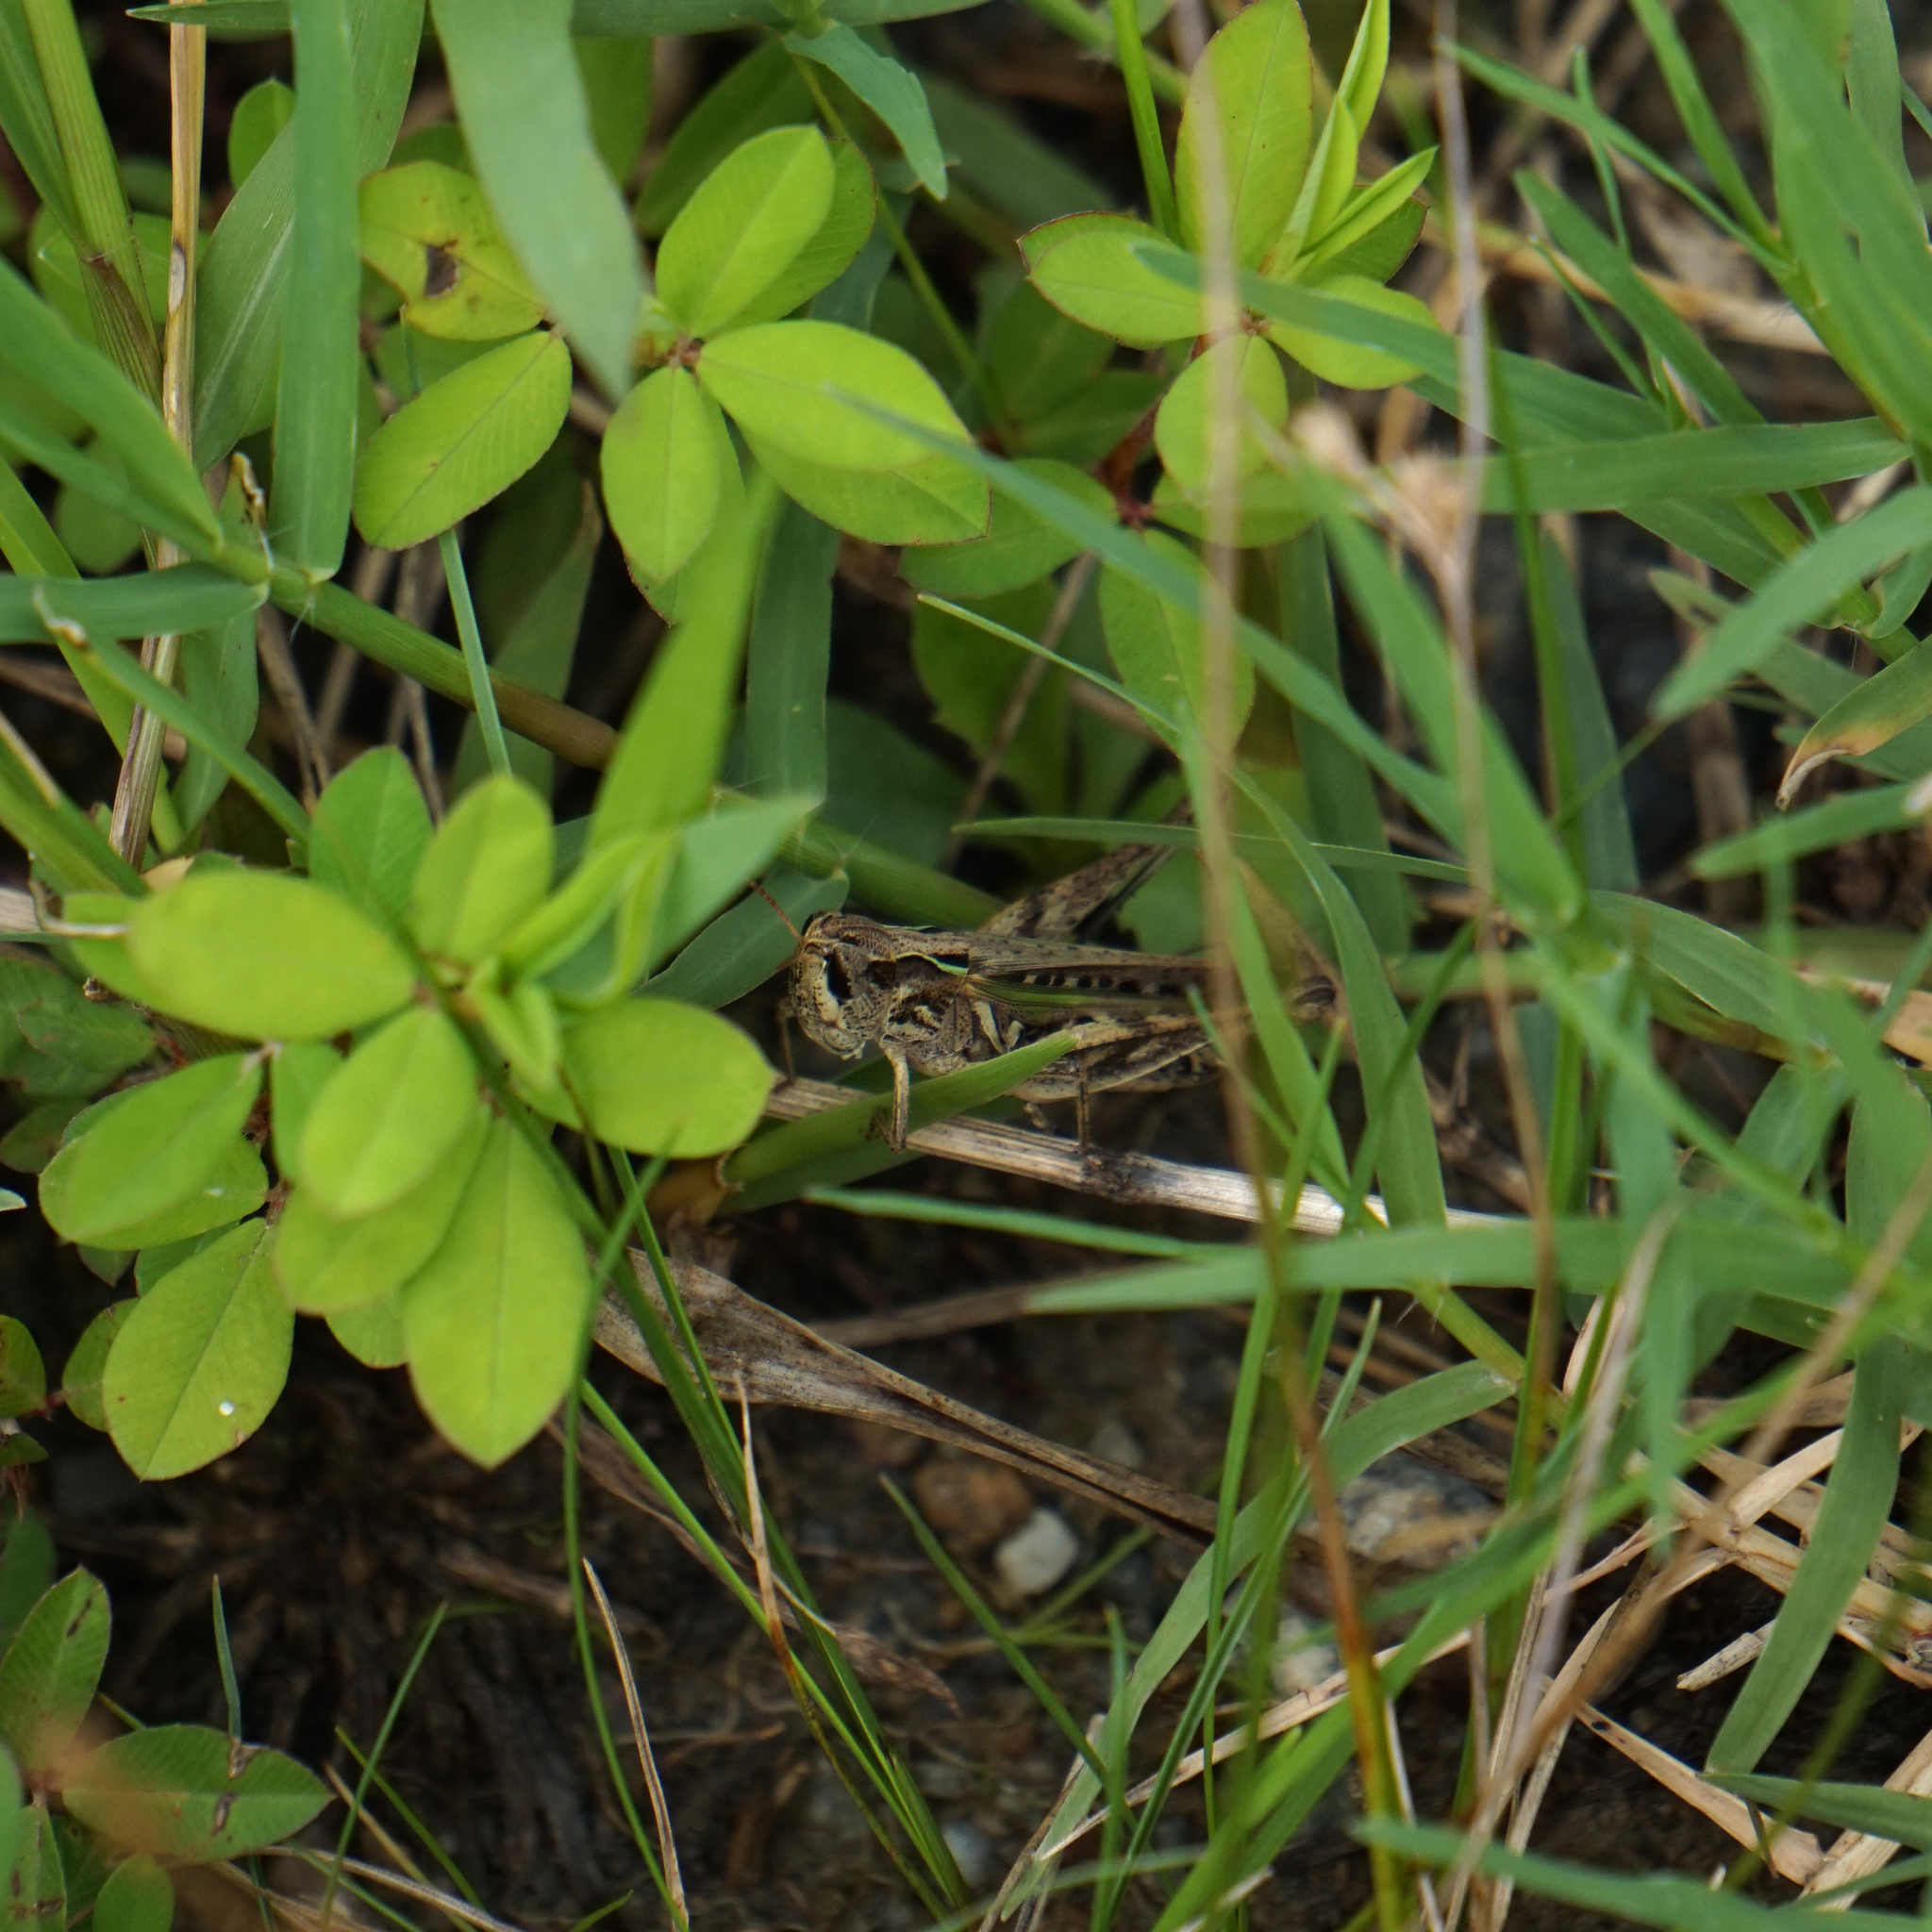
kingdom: Animalia
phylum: Arthropoda
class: Insecta
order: Orthoptera
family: Acrididae
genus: Orphulella
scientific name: Orphulella speciosa
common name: Pasture grasshopper
